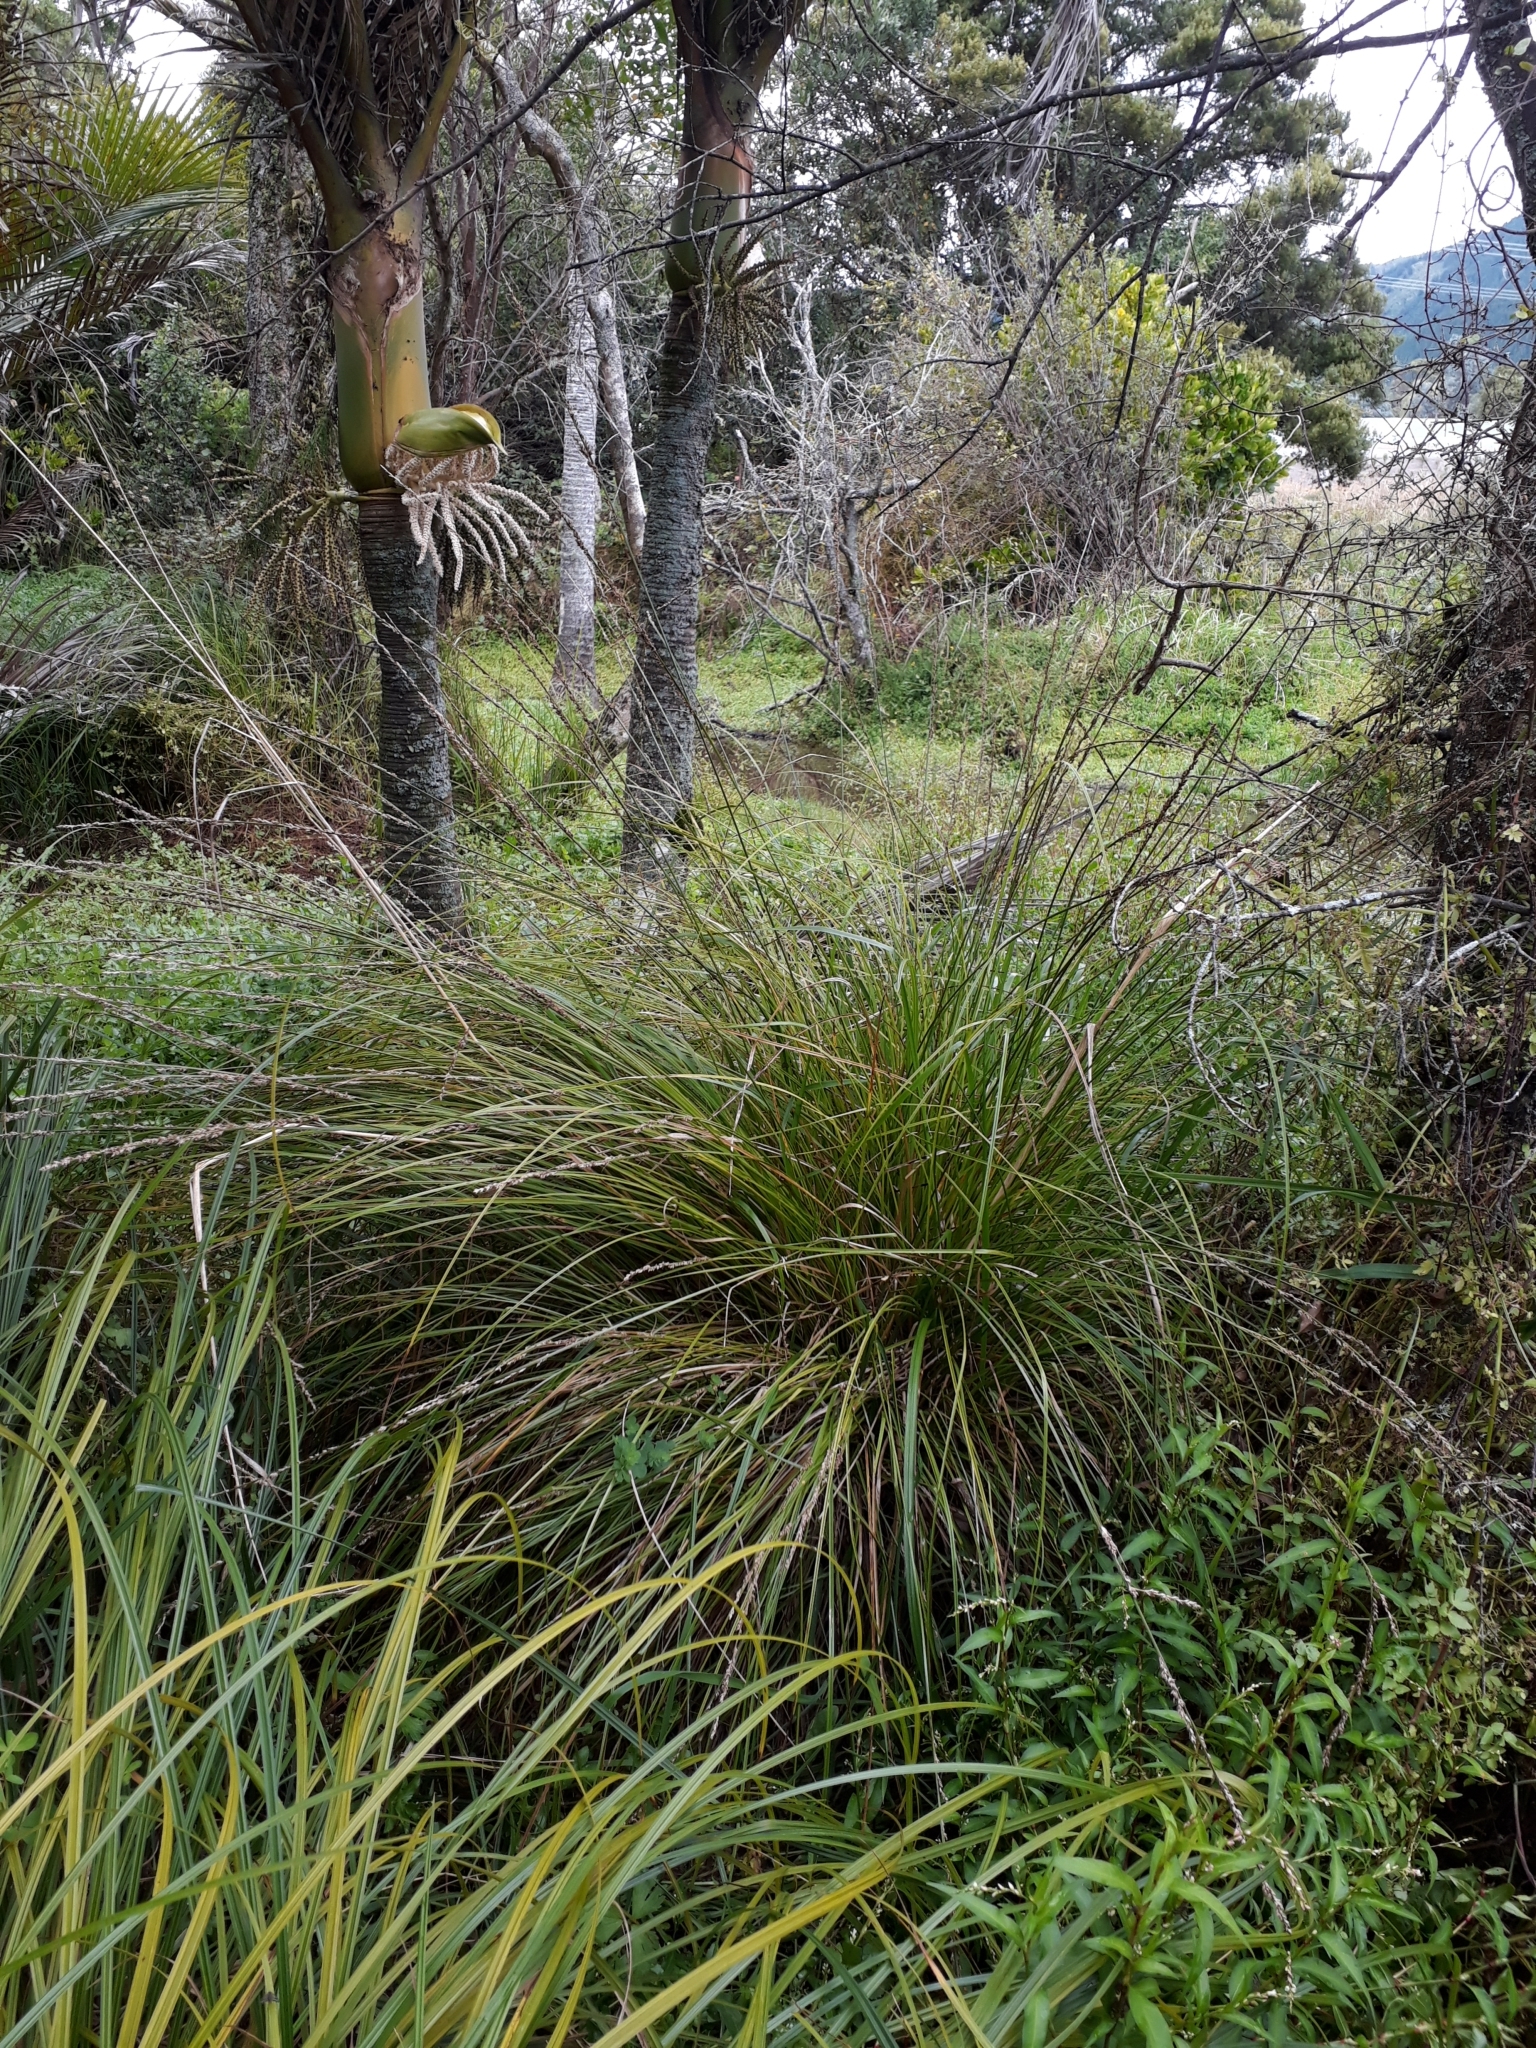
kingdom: Plantae
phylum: Tracheophyta
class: Liliopsida
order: Poales
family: Cyperaceae
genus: Carex
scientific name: Carex virgata
